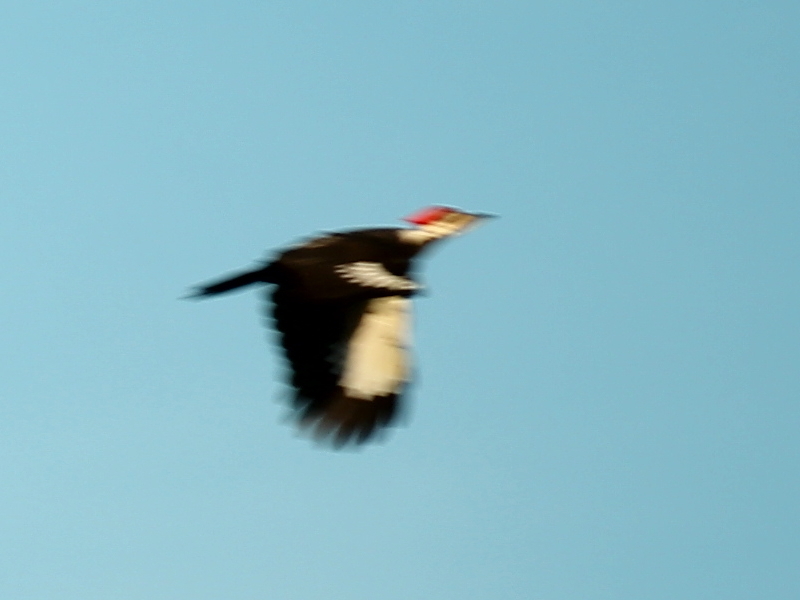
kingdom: Animalia
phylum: Chordata
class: Aves
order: Piciformes
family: Picidae
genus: Dryocopus
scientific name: Dryocopus pileatus
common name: Pileated woodpecker
